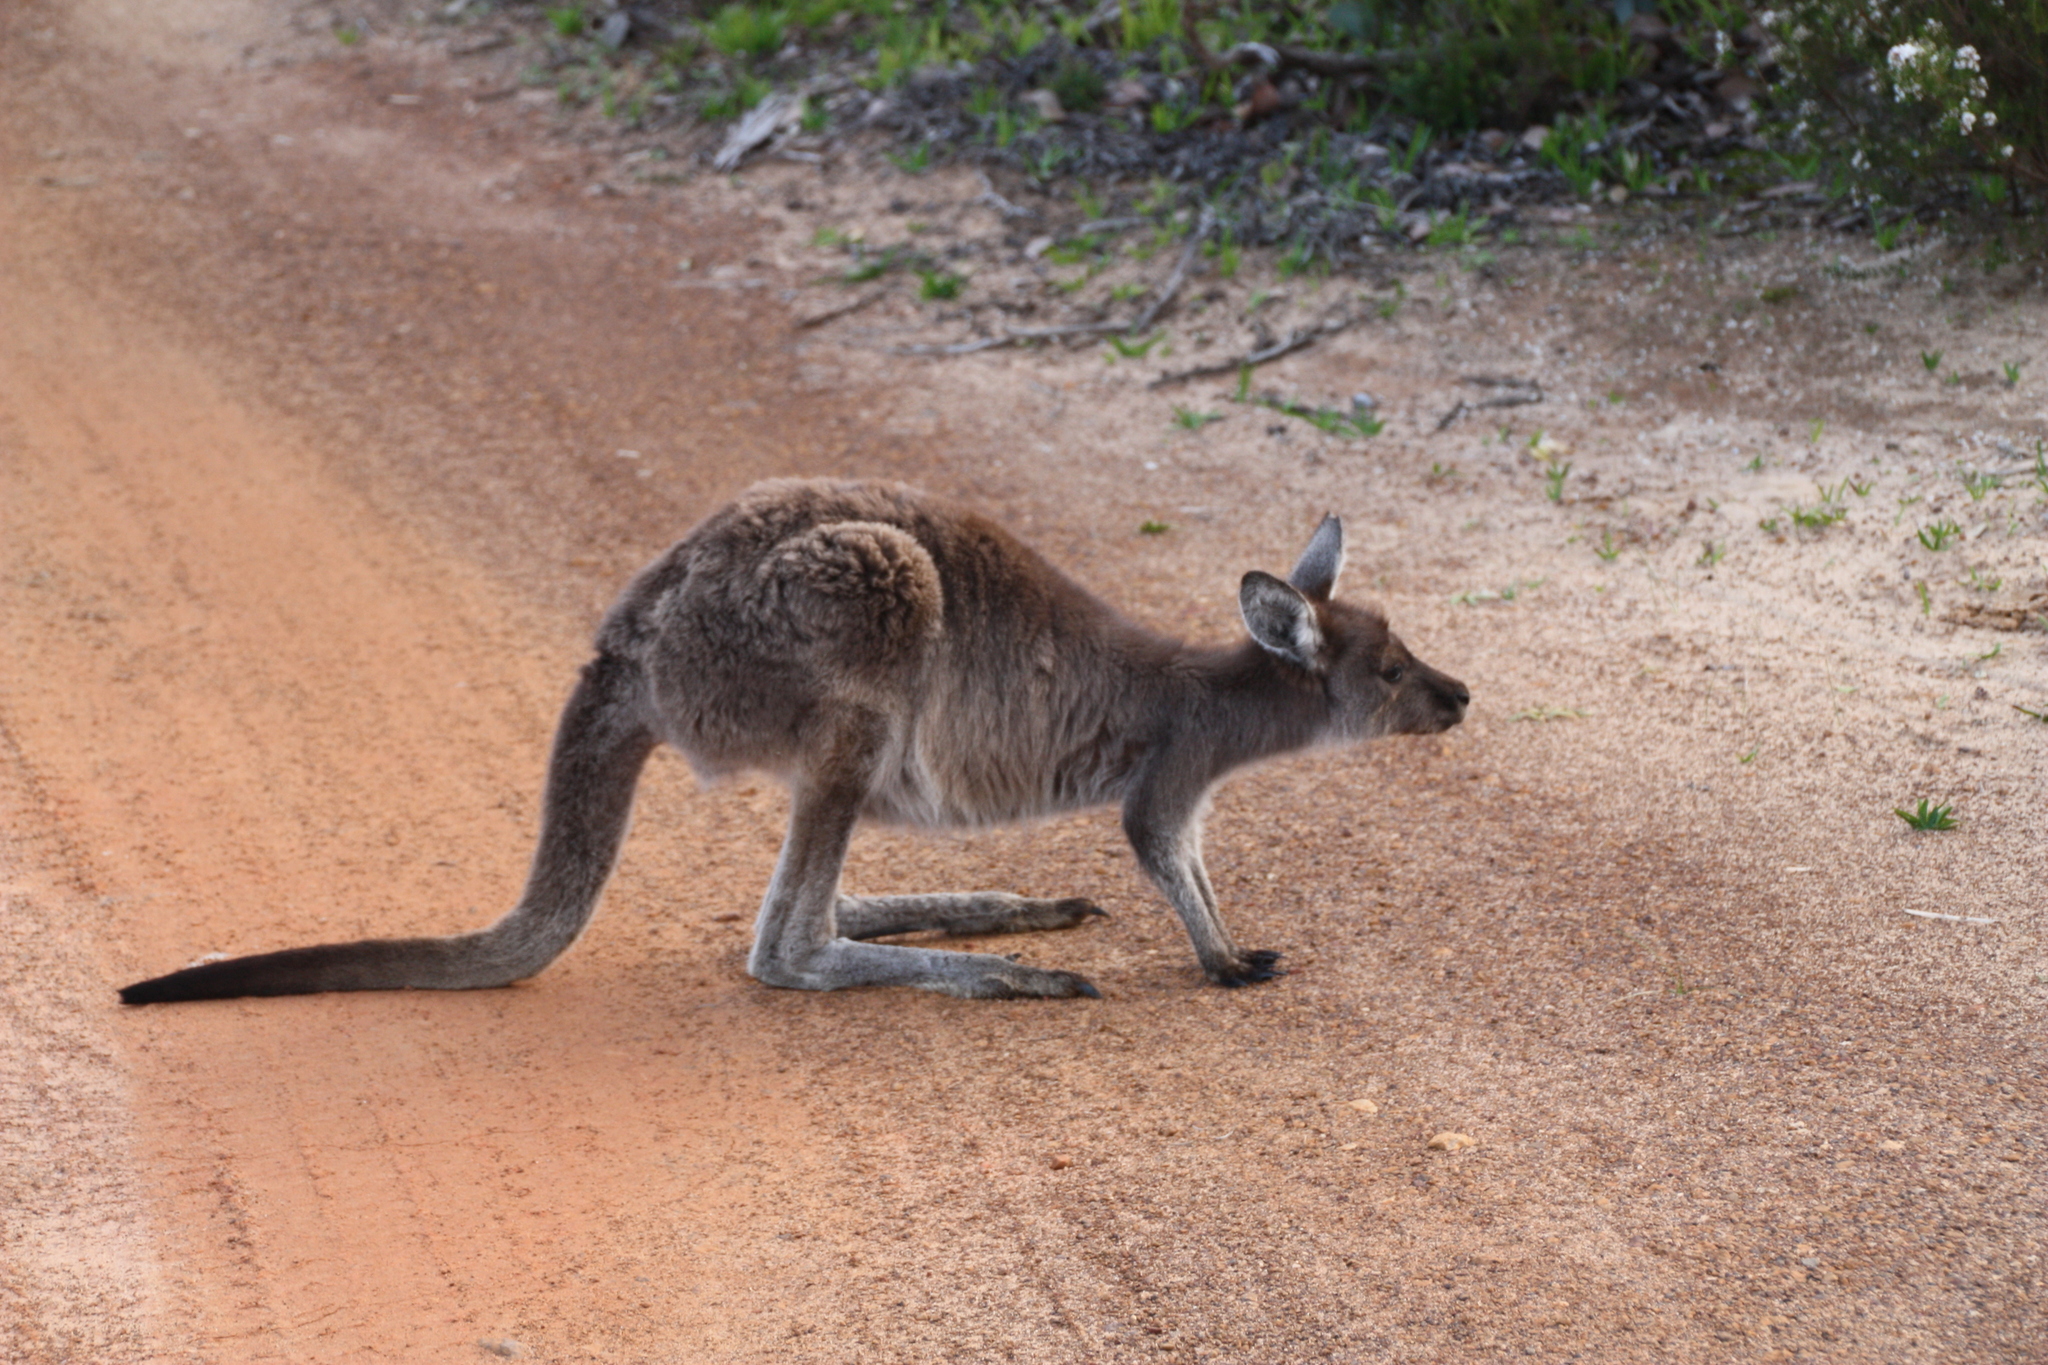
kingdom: Animalia
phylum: Chordata
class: Mammalia
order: Diprotodontia
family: Macropodidae
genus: Macropus
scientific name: Macropus fuliginosus
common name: Western grey kangaroo
